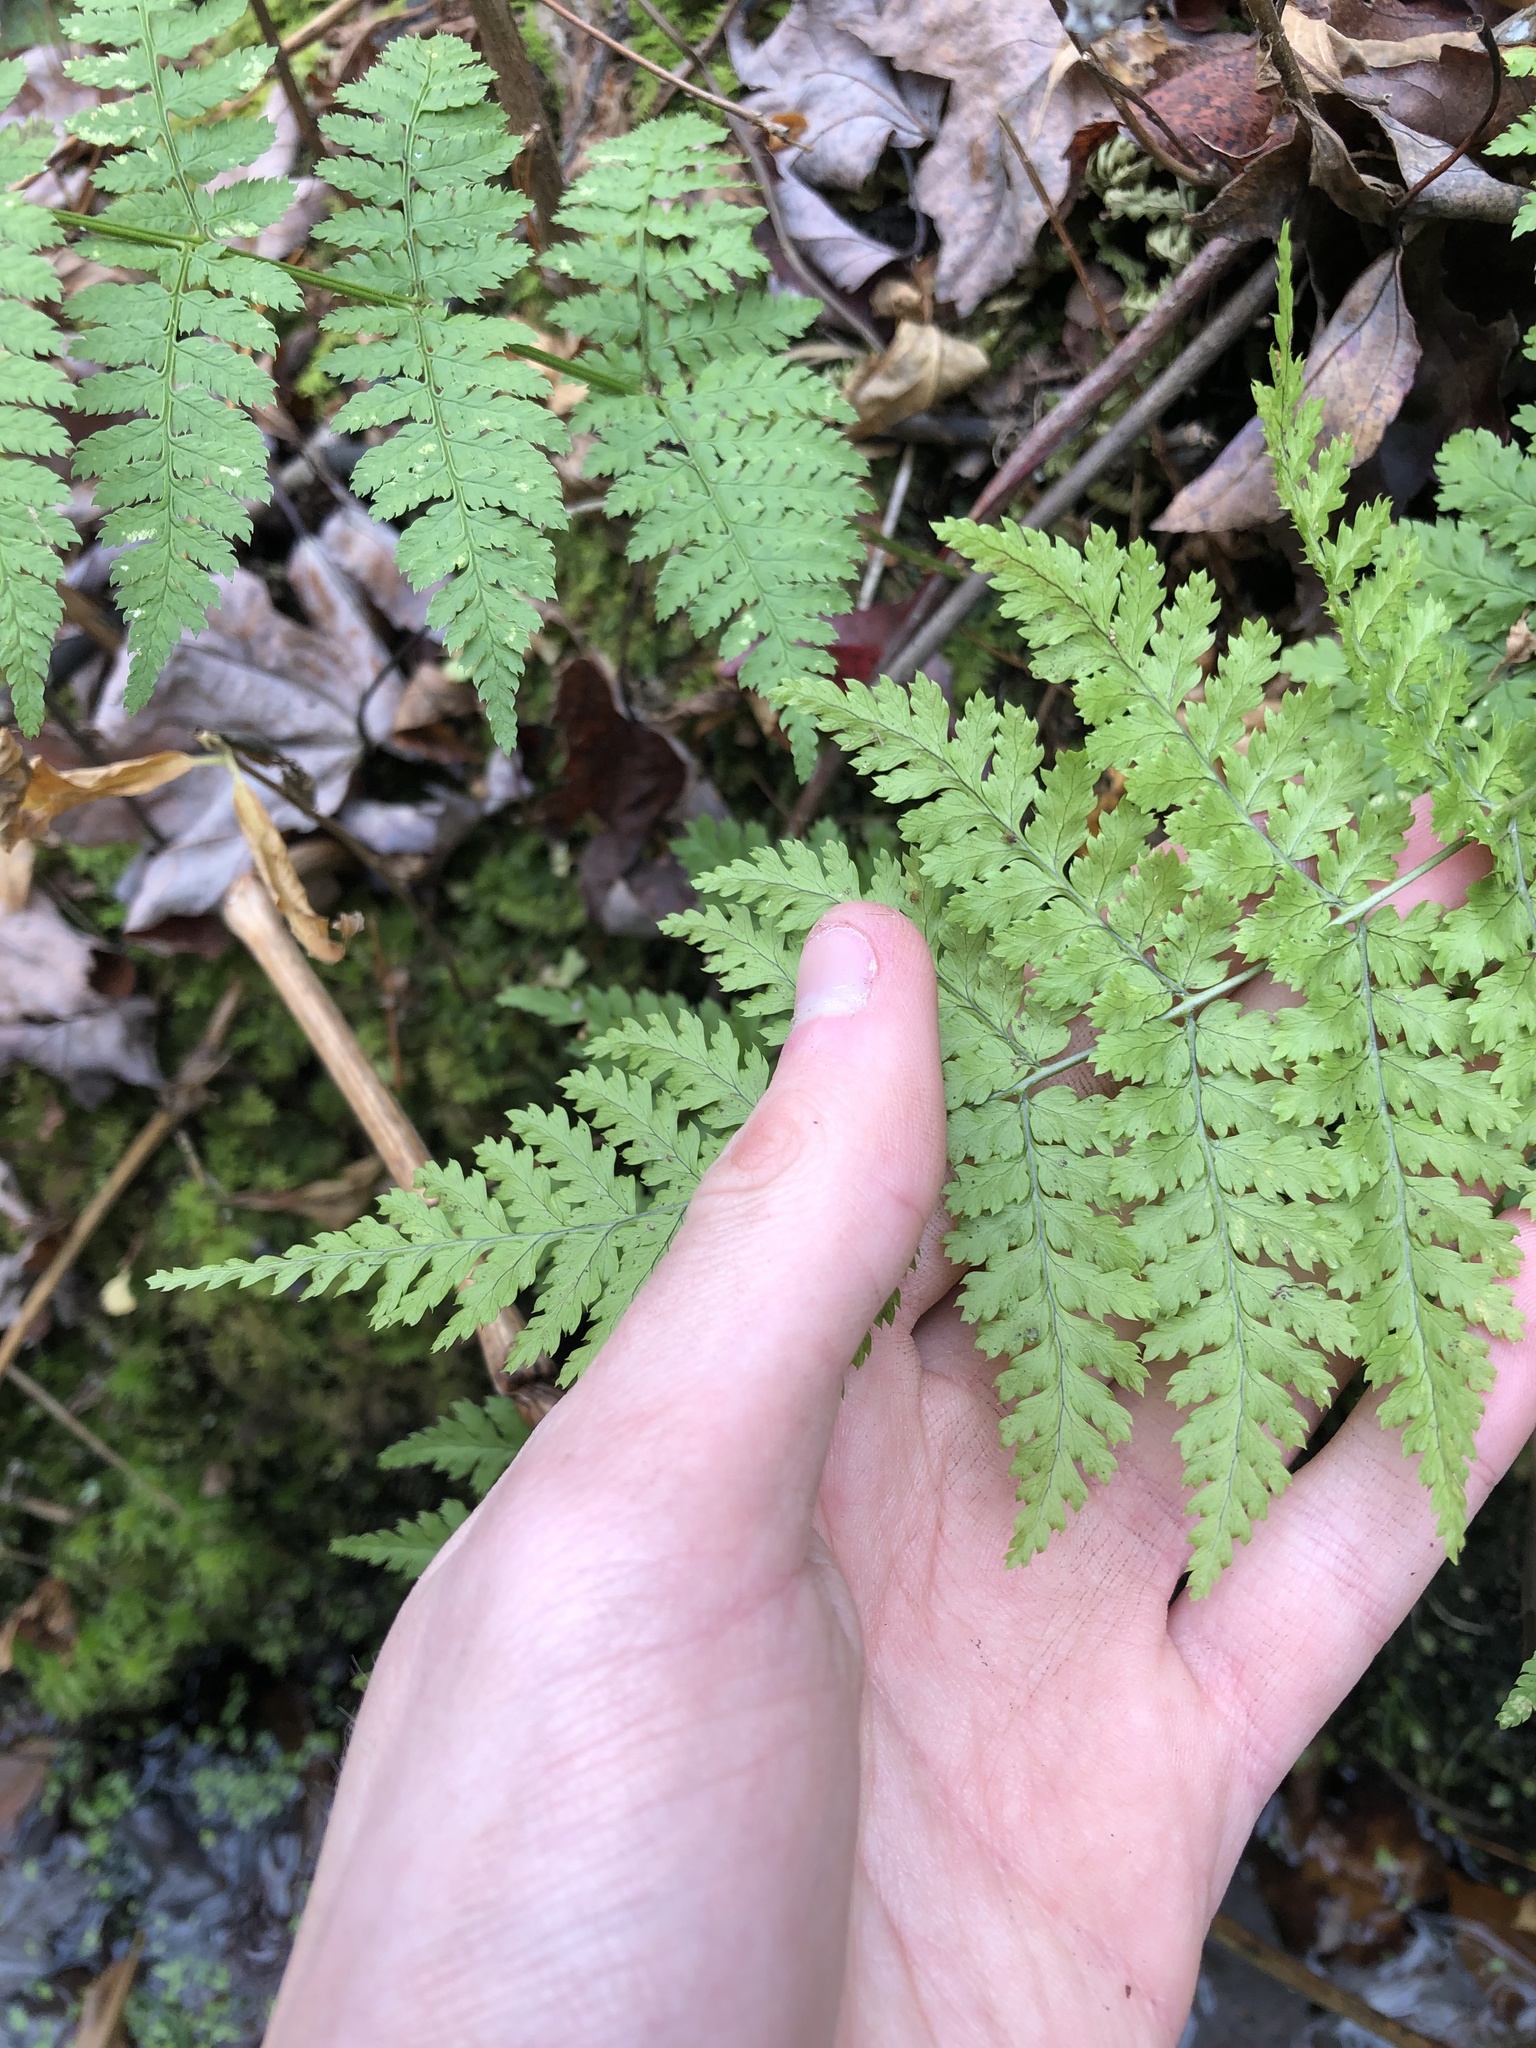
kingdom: Plantae
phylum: Tracheophyta
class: Polypodiopsida
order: Polypodiales
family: Dryopteridaceae
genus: Dryopteris
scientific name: Dryopteris intermedia
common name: Evergreen wood fern
